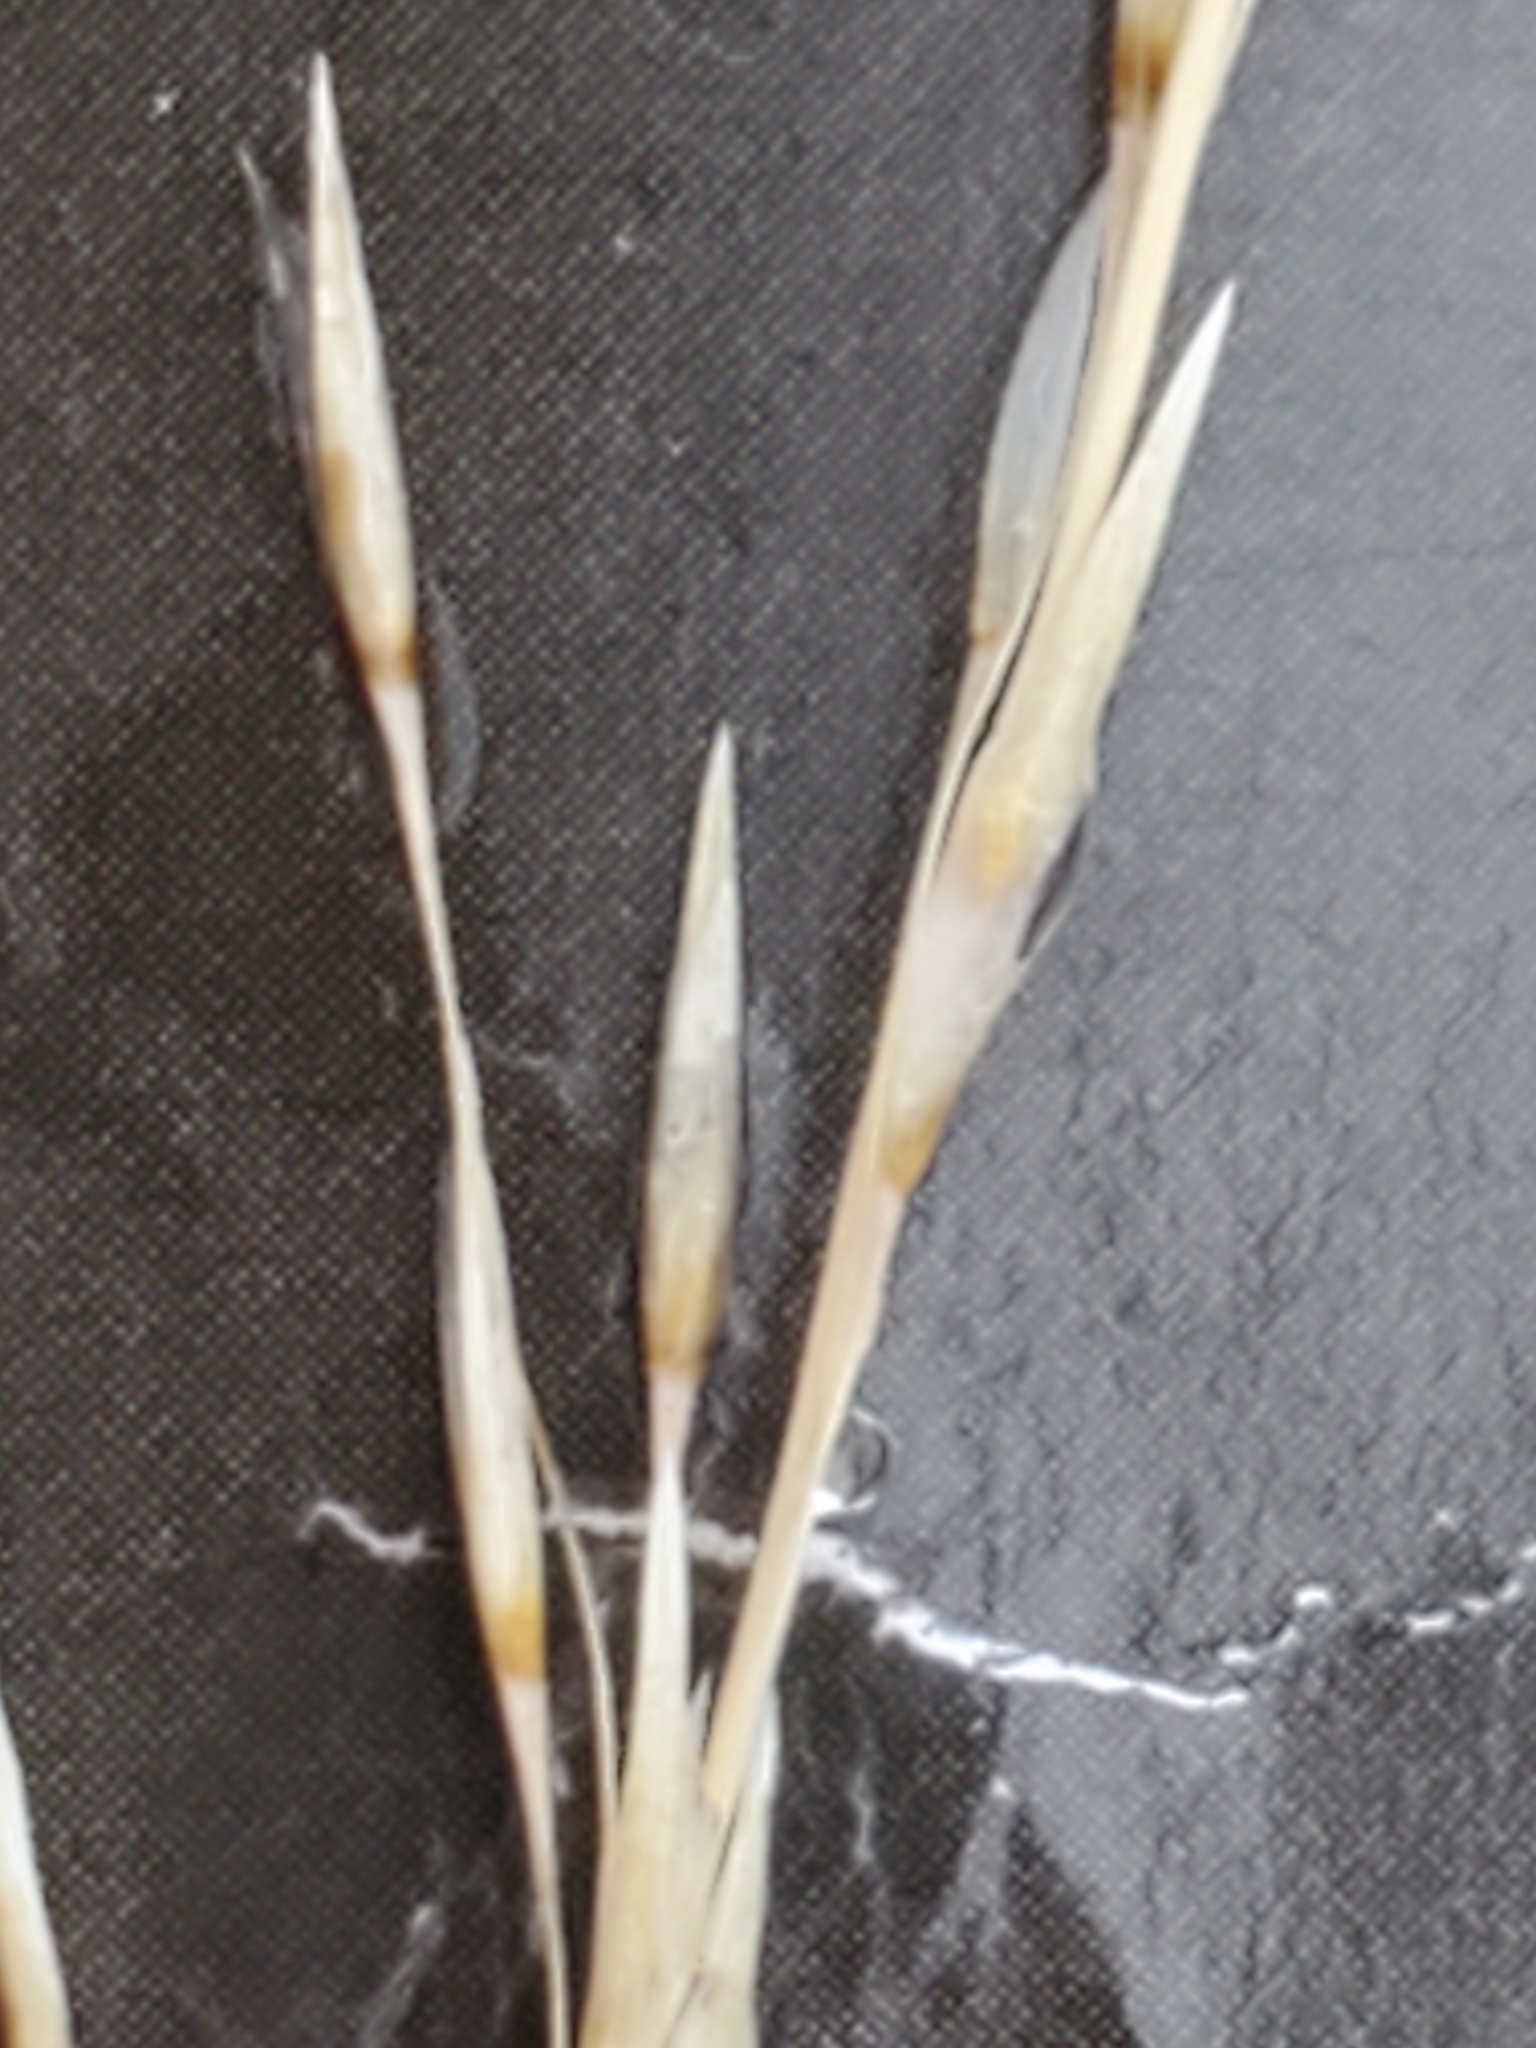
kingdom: Plantae
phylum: Tracheophyta
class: Liliopsida
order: Poales
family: Poaceae
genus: Muhlenbergia
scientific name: Muhlenbergia rigens
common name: Deer grass
